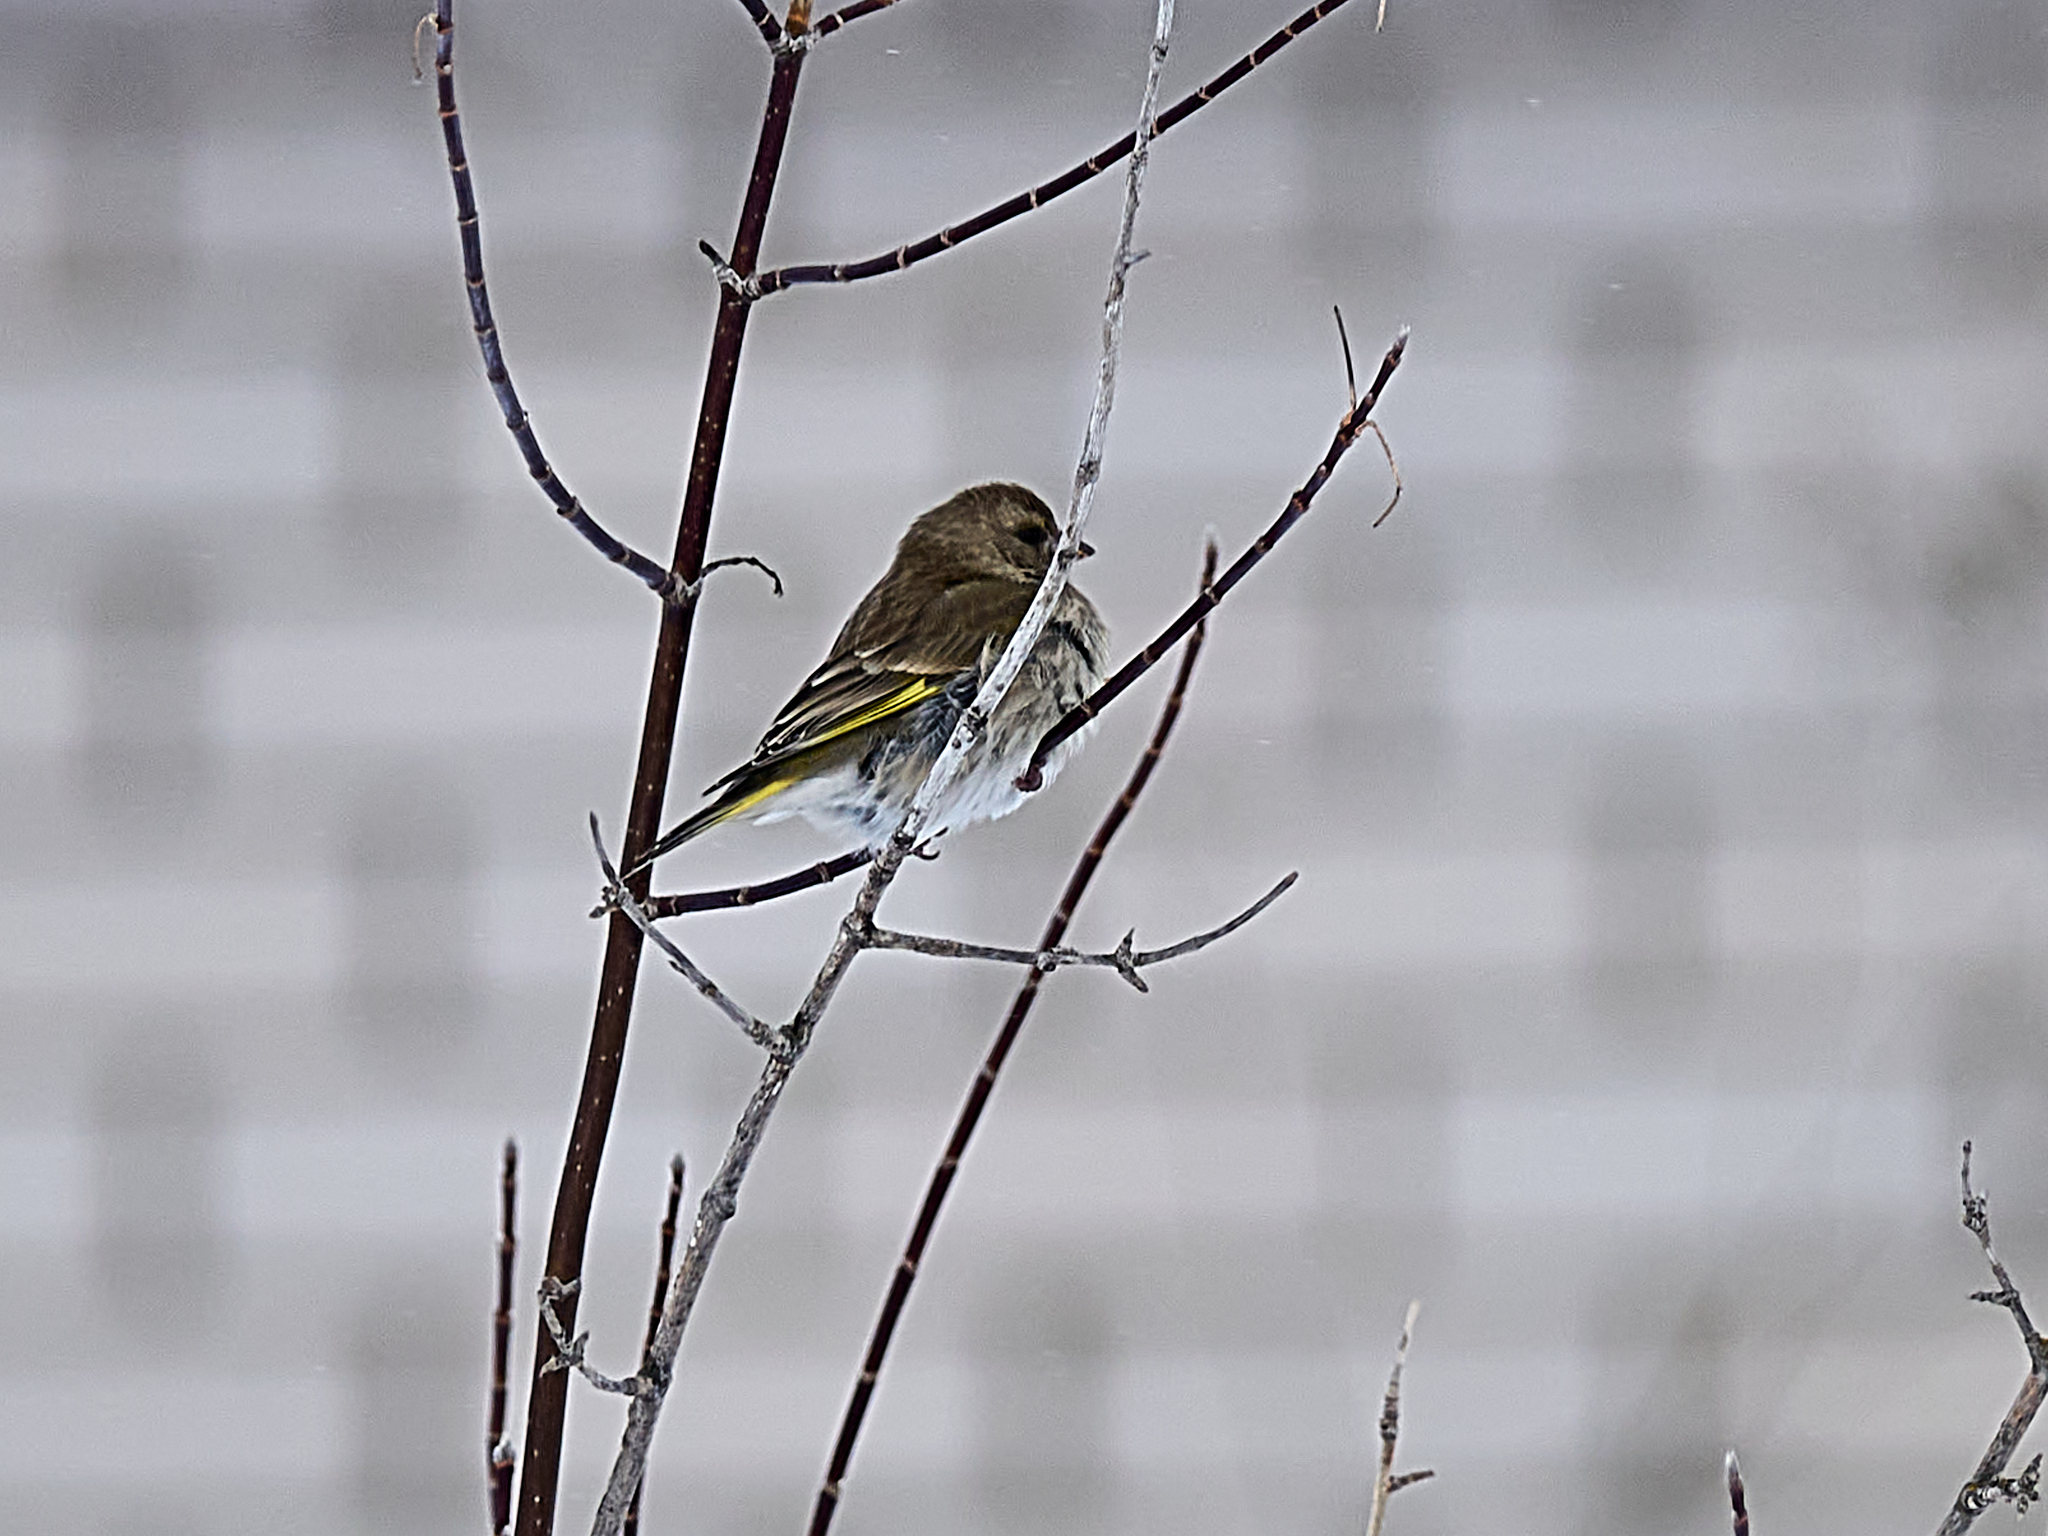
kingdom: Plantae
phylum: Tracheophyta
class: Liliopsida
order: Poales
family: Poaceae
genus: Chloris
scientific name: Chloris chloris
